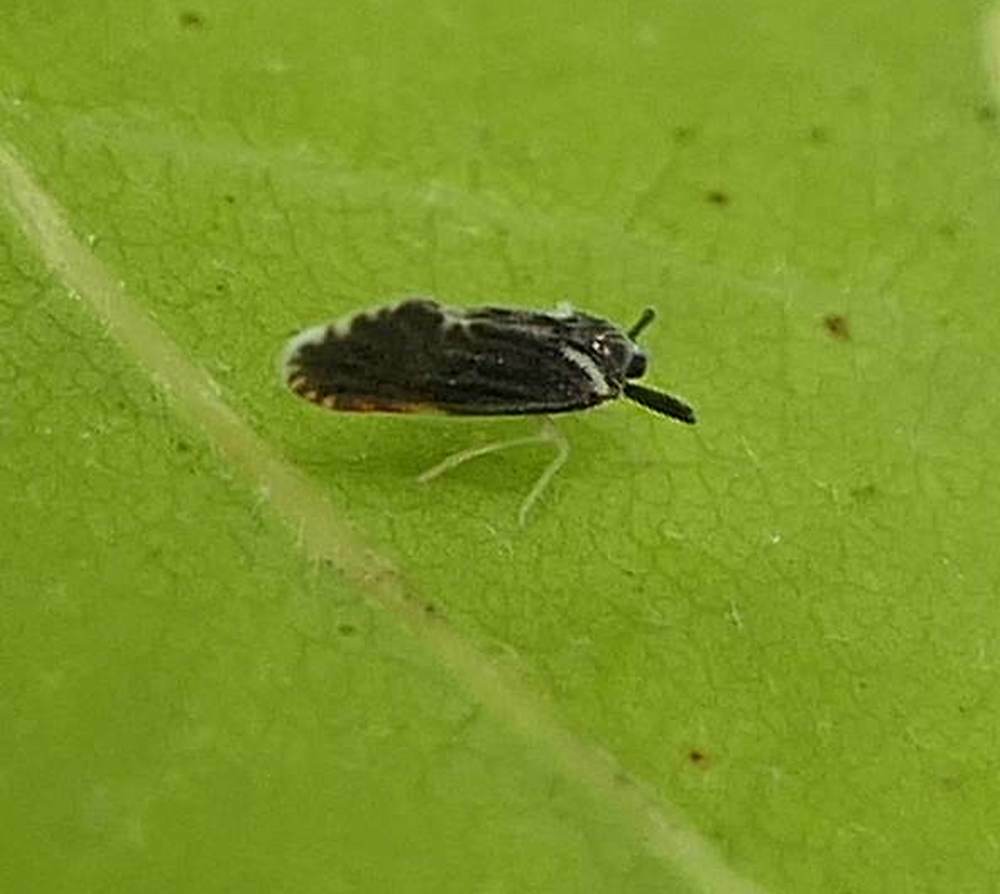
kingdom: Animalia
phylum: Arthropoda
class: Insecta
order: Hemiptera
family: Derbidae
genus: Patara
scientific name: Patara vanduzei
